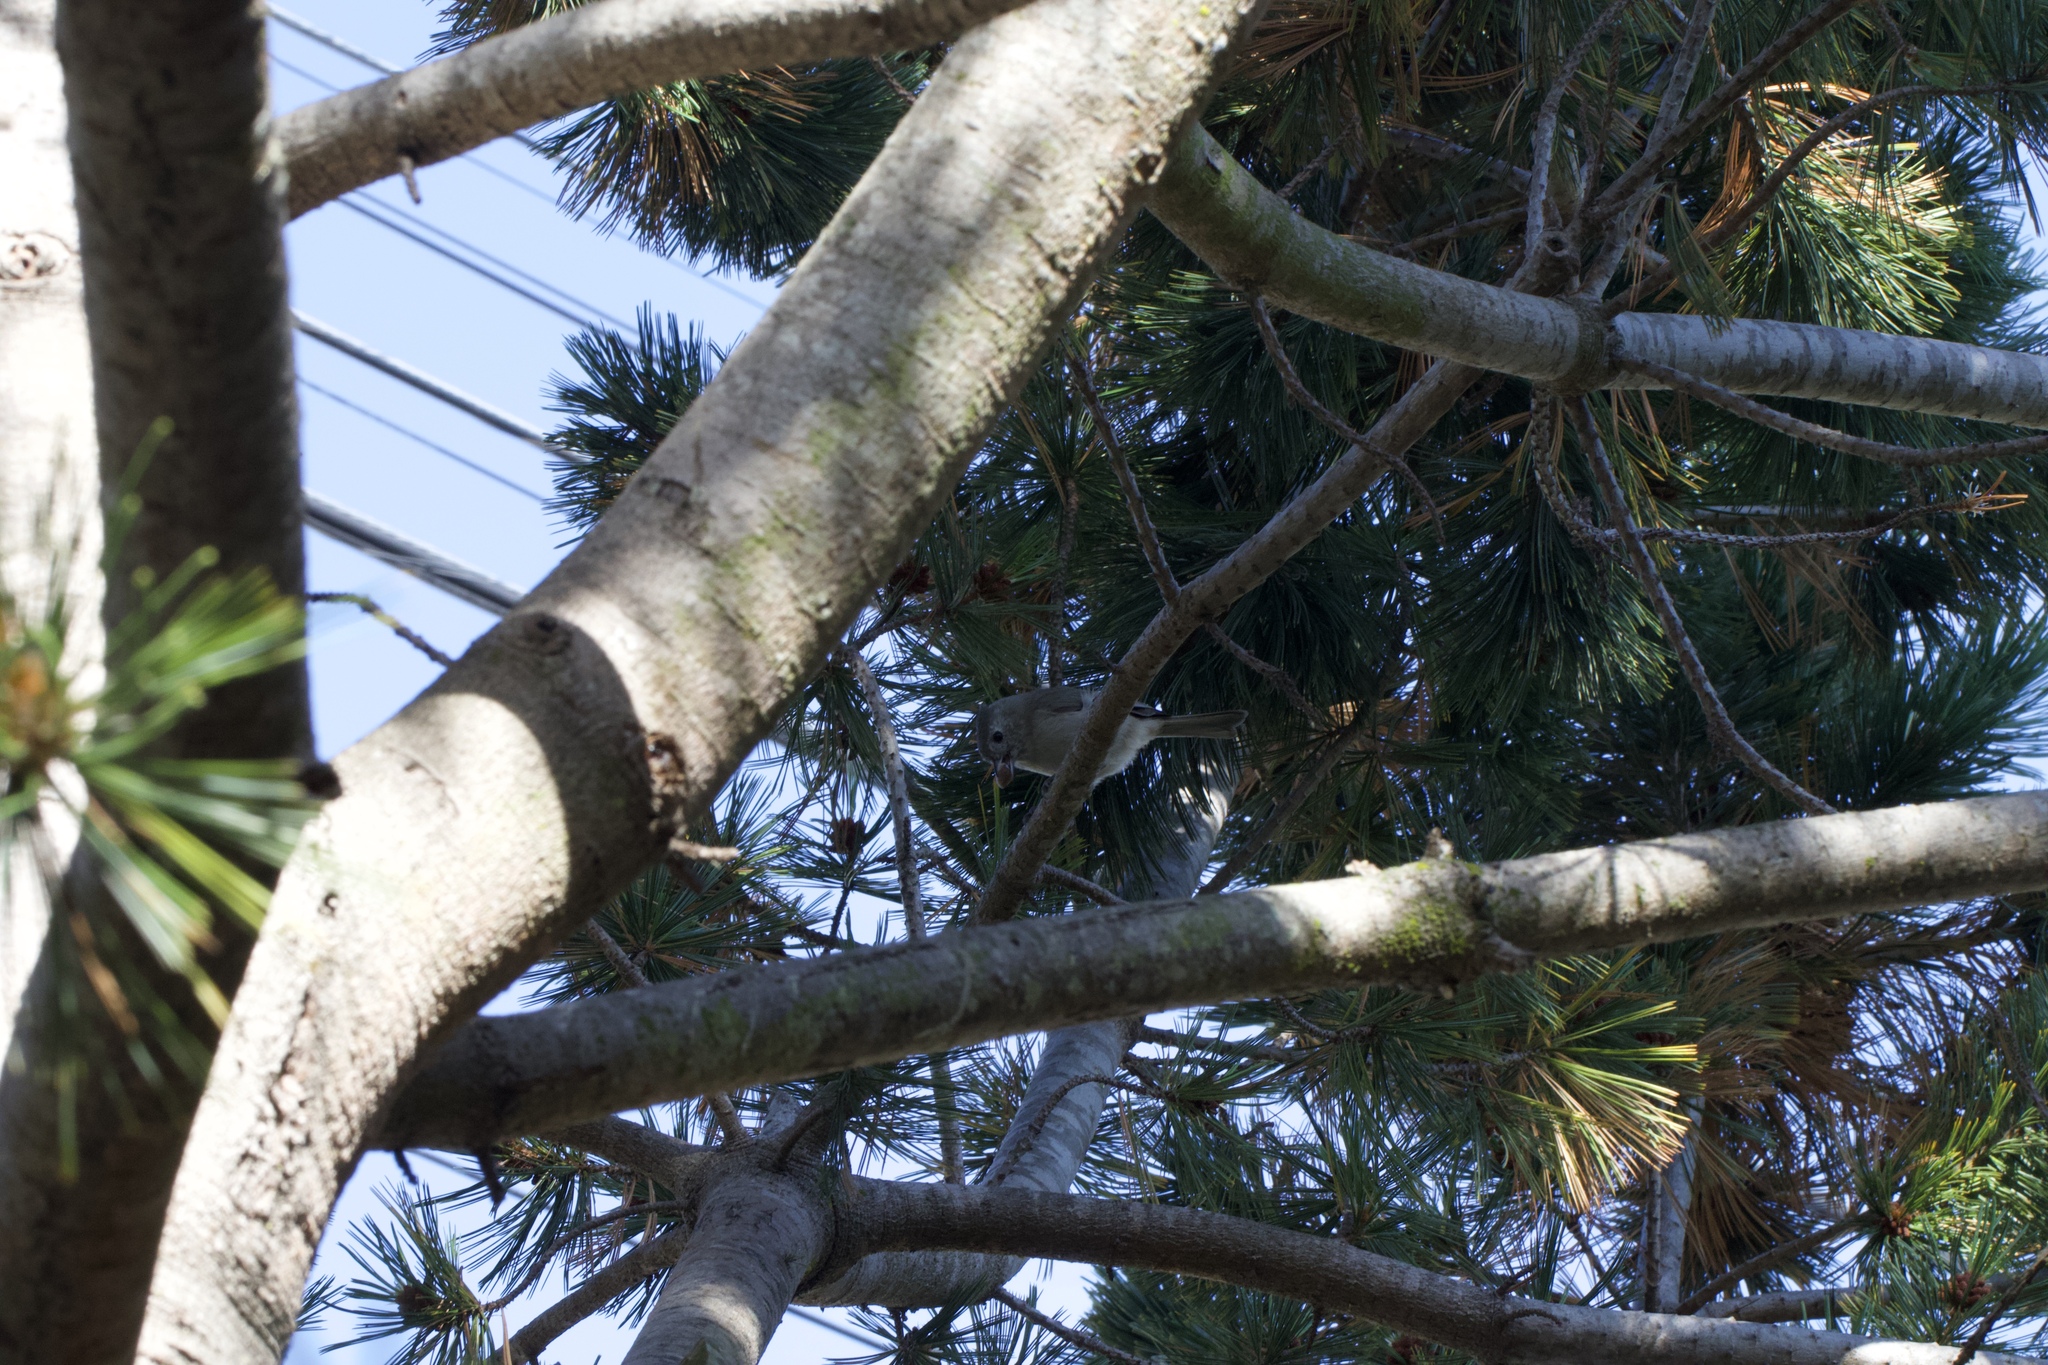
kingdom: Animalia
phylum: Chordata
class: Aves
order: Passeriformes
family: Paridae
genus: Baeolophus
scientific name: Baeolophus inornatus
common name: Oak titmouse
